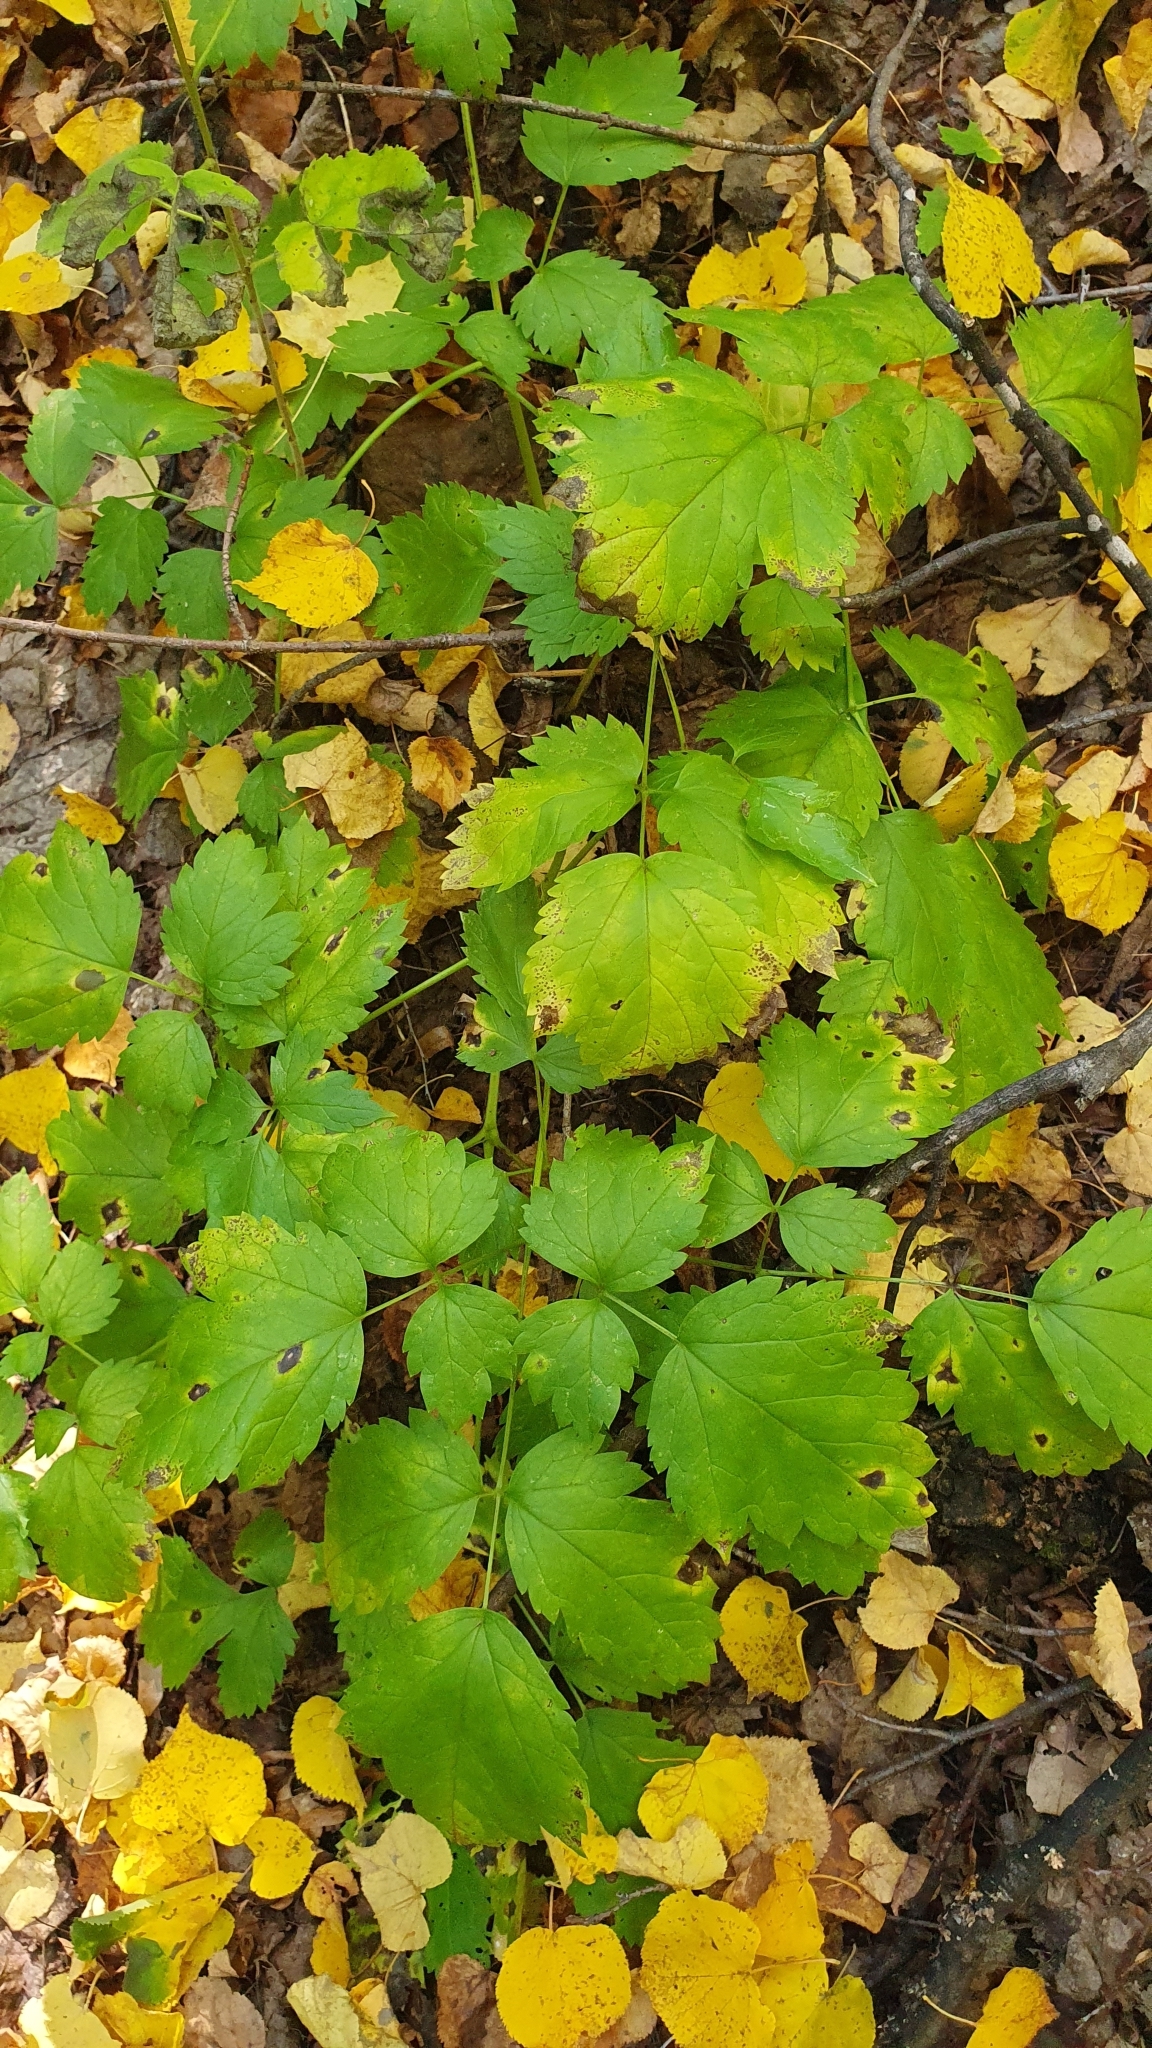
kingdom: Plantae
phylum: Tracheophyta
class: Magnoliopsida
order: Ranunculales
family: Ranunculaceae
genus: Actaea
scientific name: Actaea spicata
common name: Baneberry
